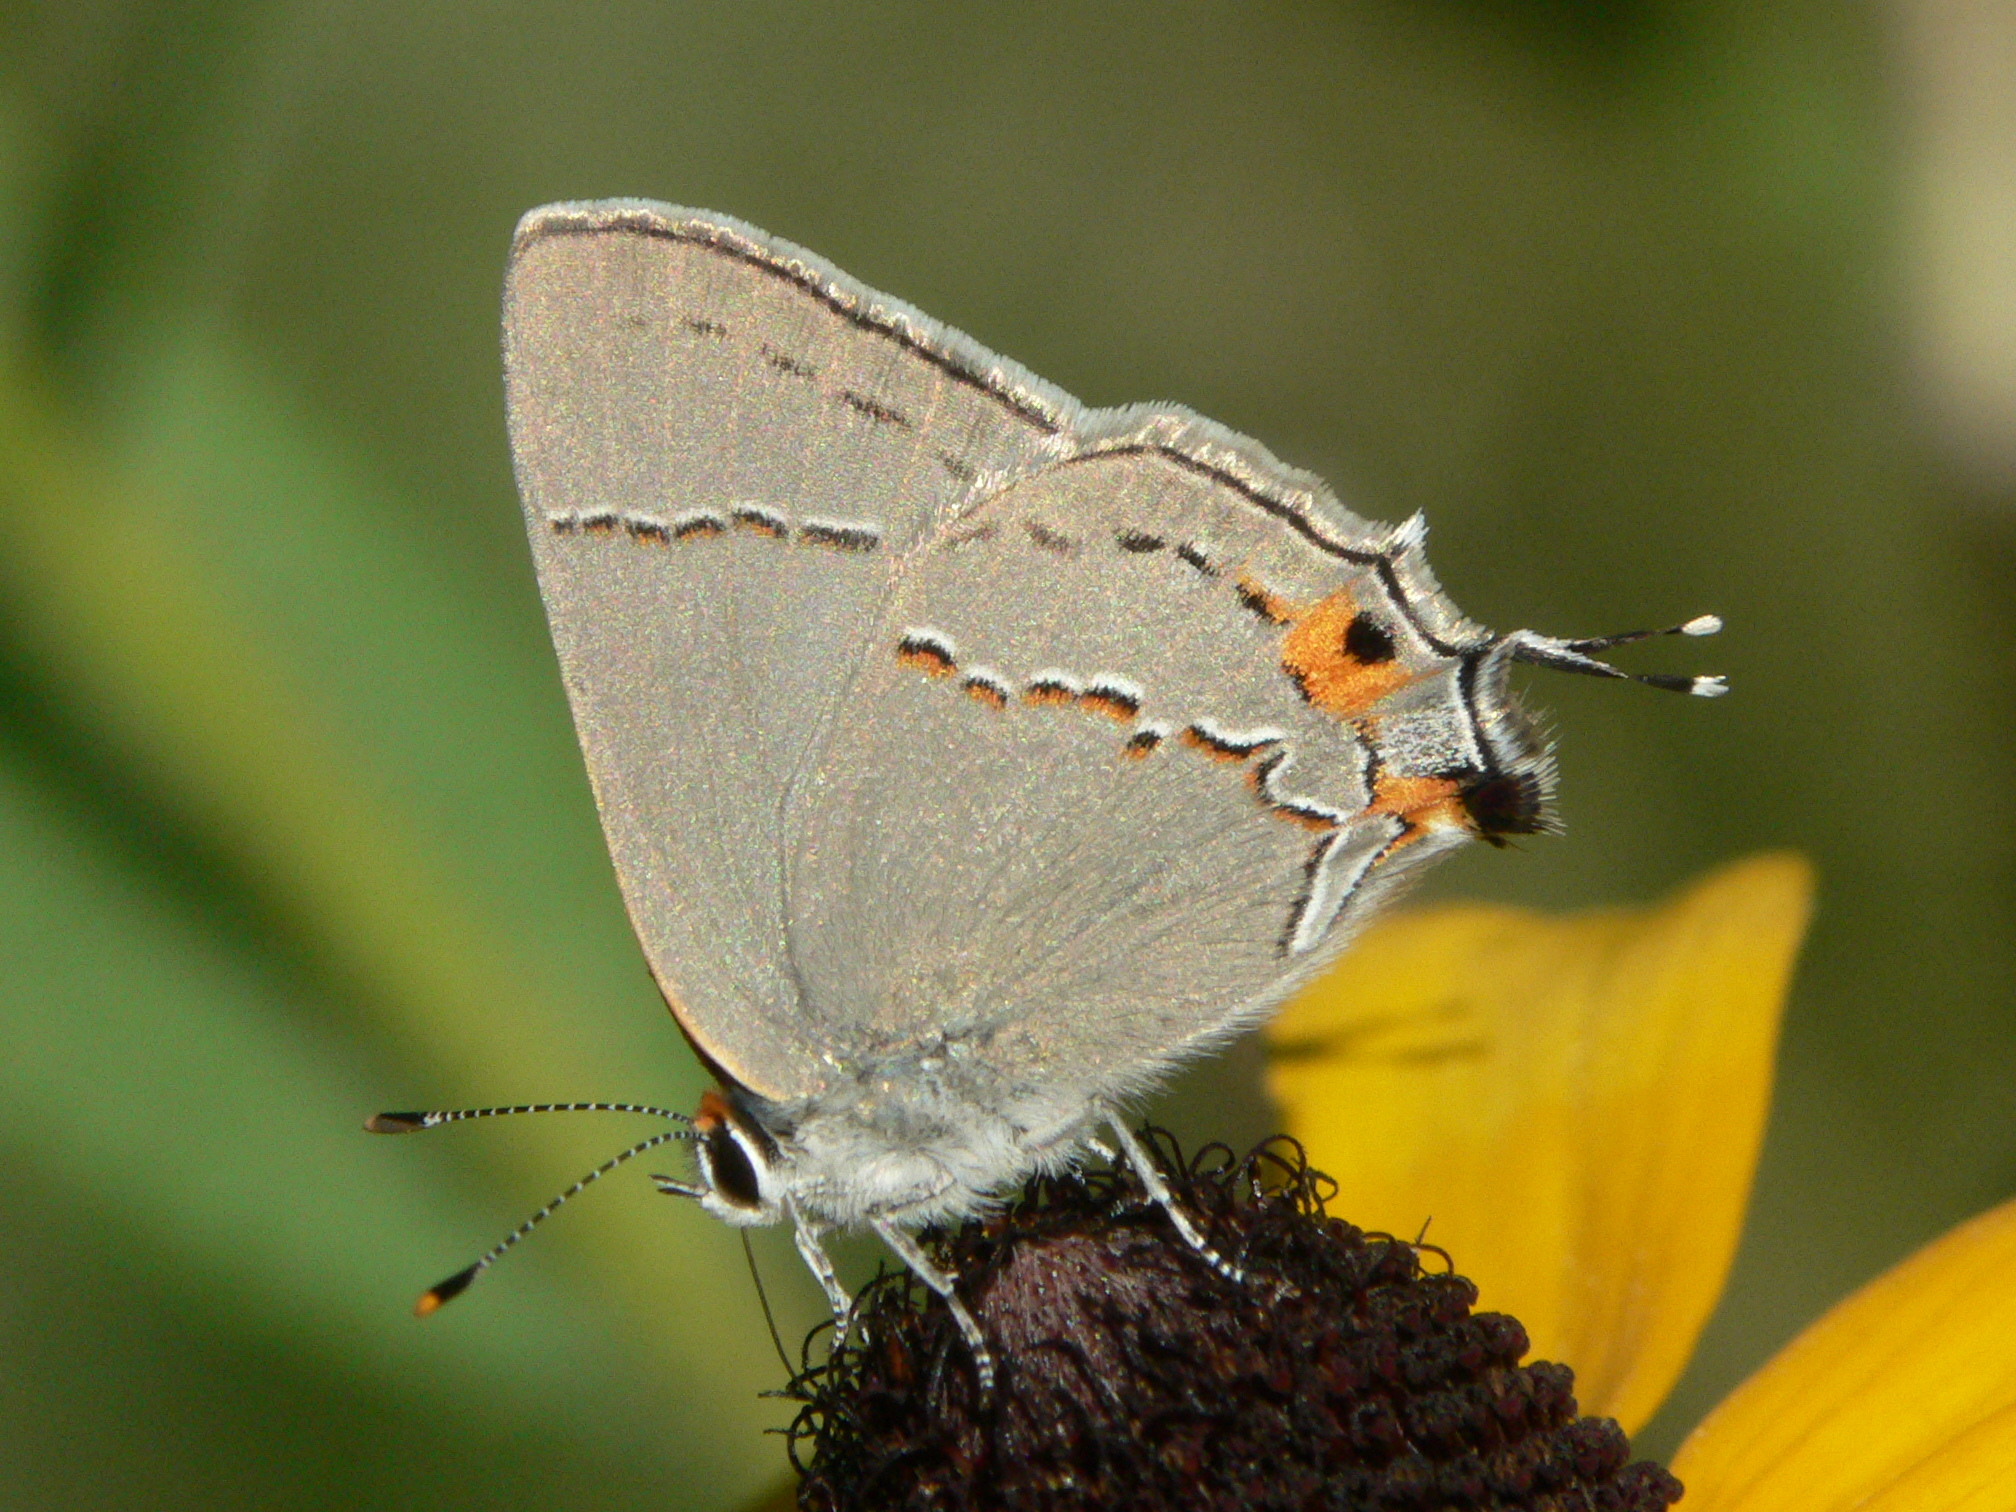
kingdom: Animalia
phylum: Arthropoda
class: Insecta
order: Lepidoptera
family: Lycaenidae
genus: Strymon
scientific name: Strymon melinus
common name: Gray hairstreak
